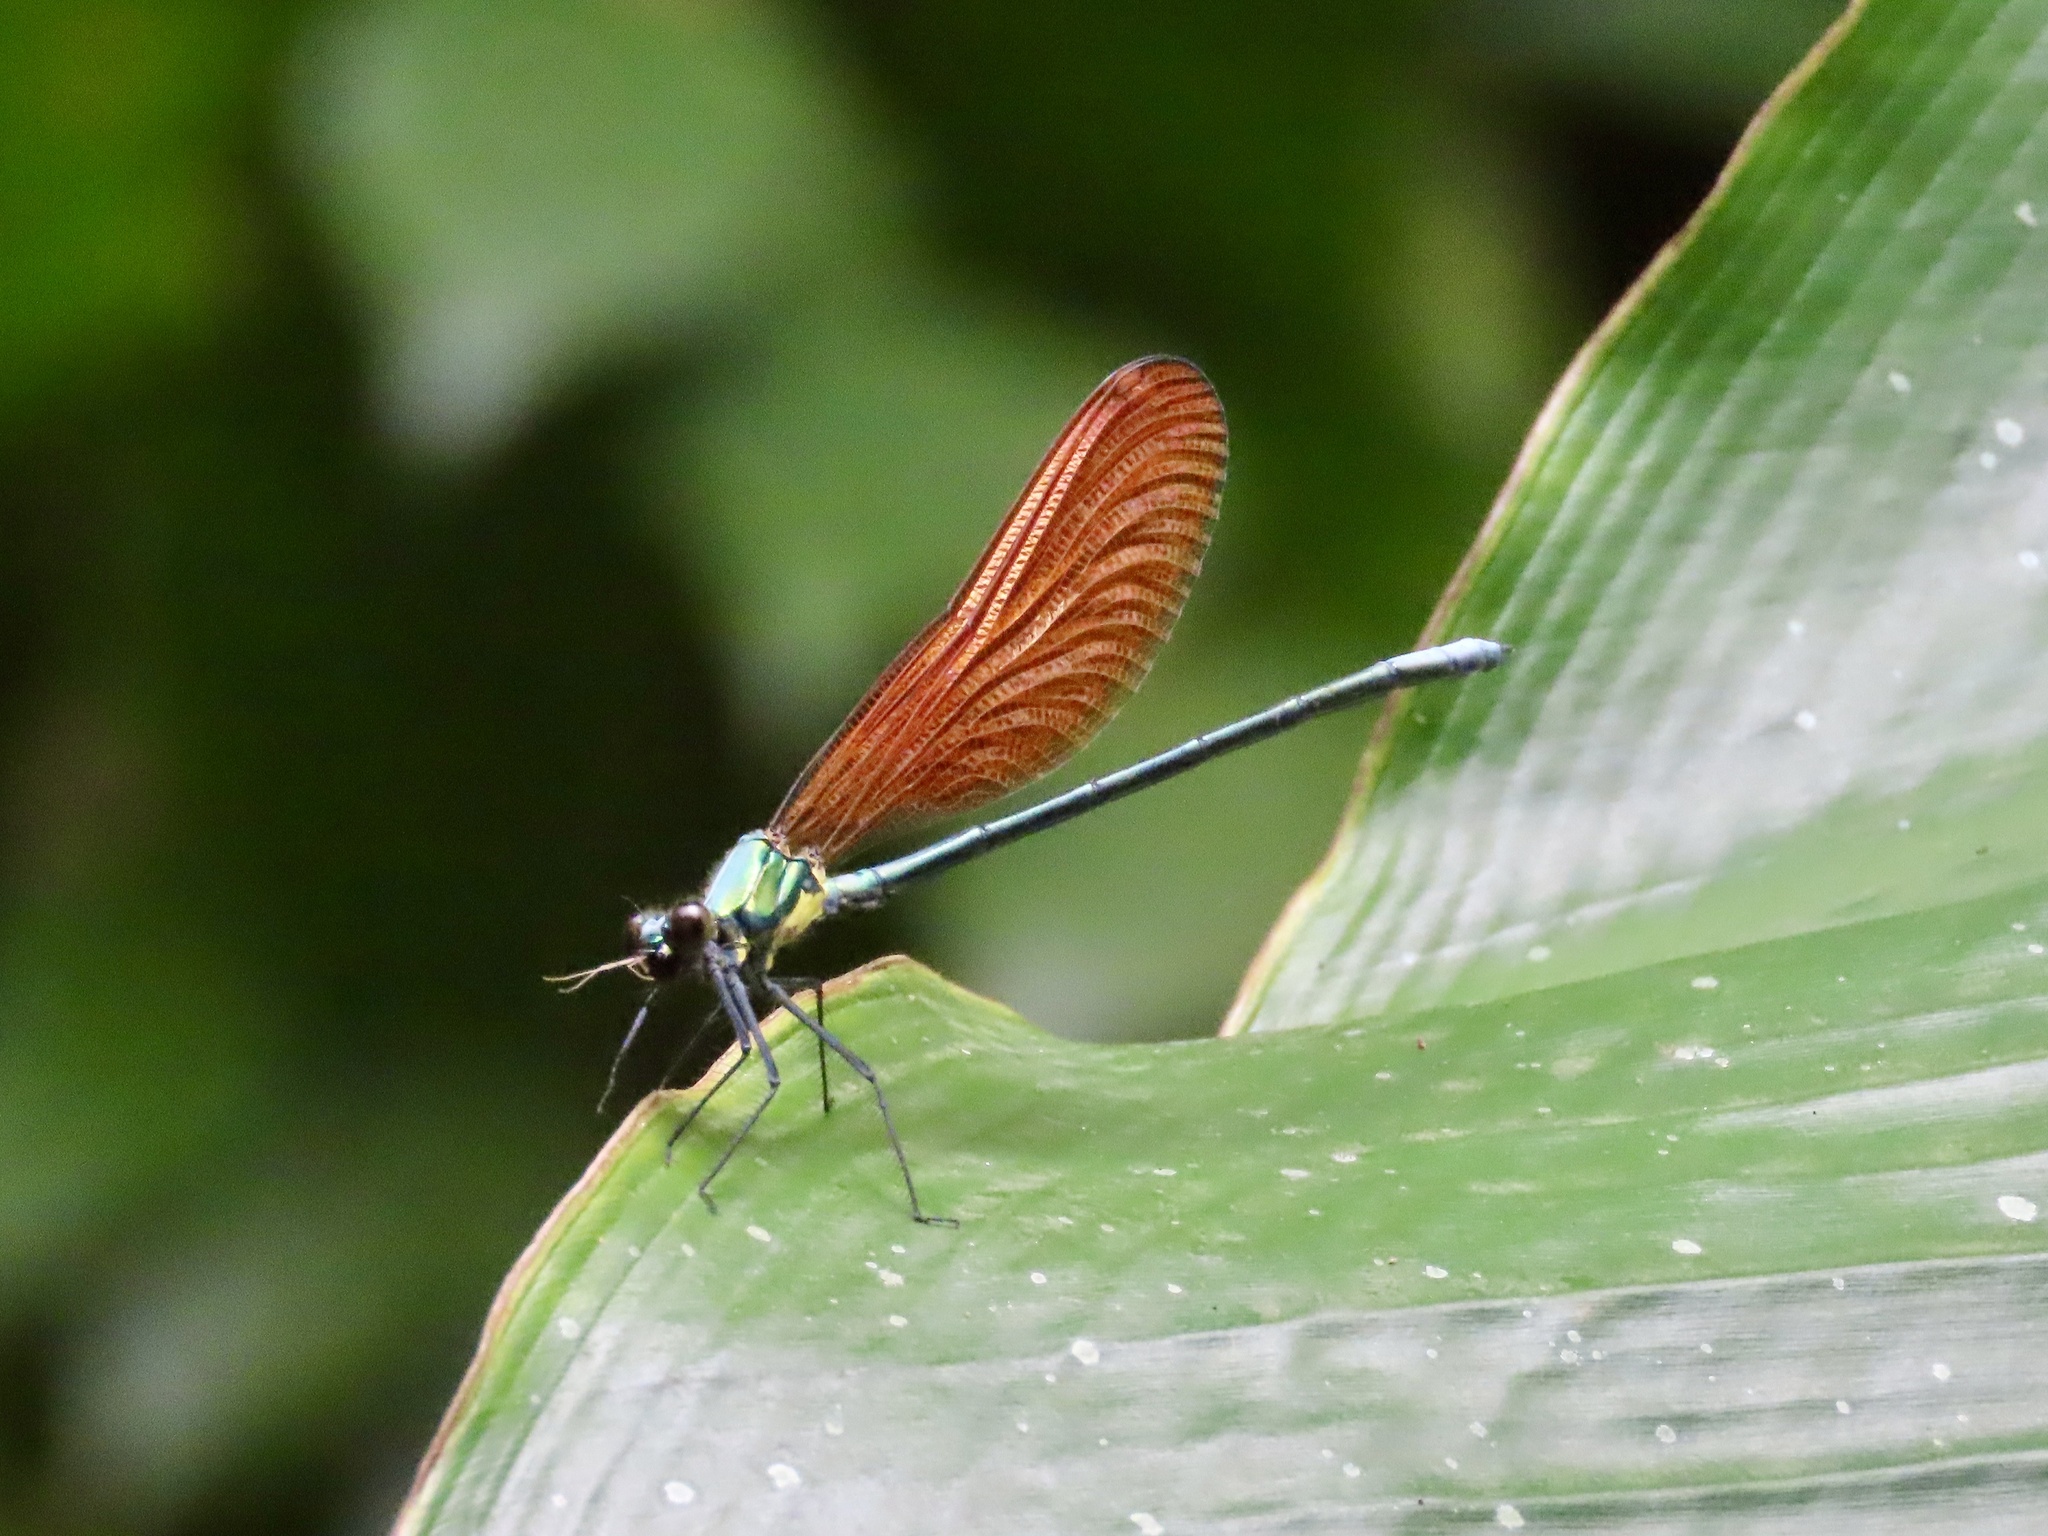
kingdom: Animalia
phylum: Arthropoda
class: Insecta
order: Odonata
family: Calopterygidae
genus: Mnais
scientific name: Mnais tenuis
